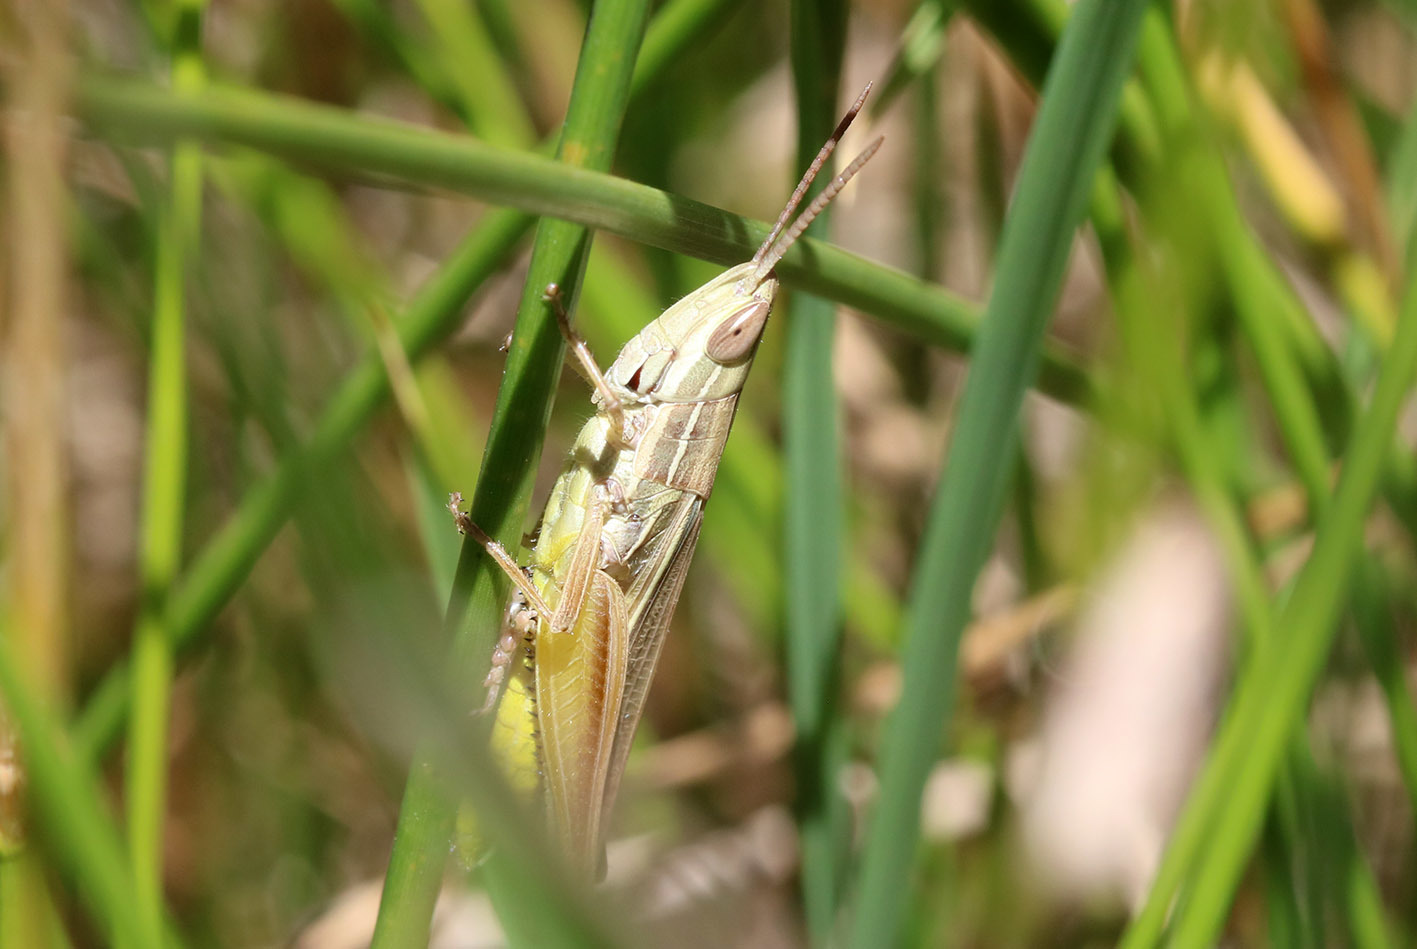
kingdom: Animalia
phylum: Arthropoda
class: Insecta
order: Orthoptera
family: Acrididae
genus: Sinipta
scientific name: Sinipta dalmani
